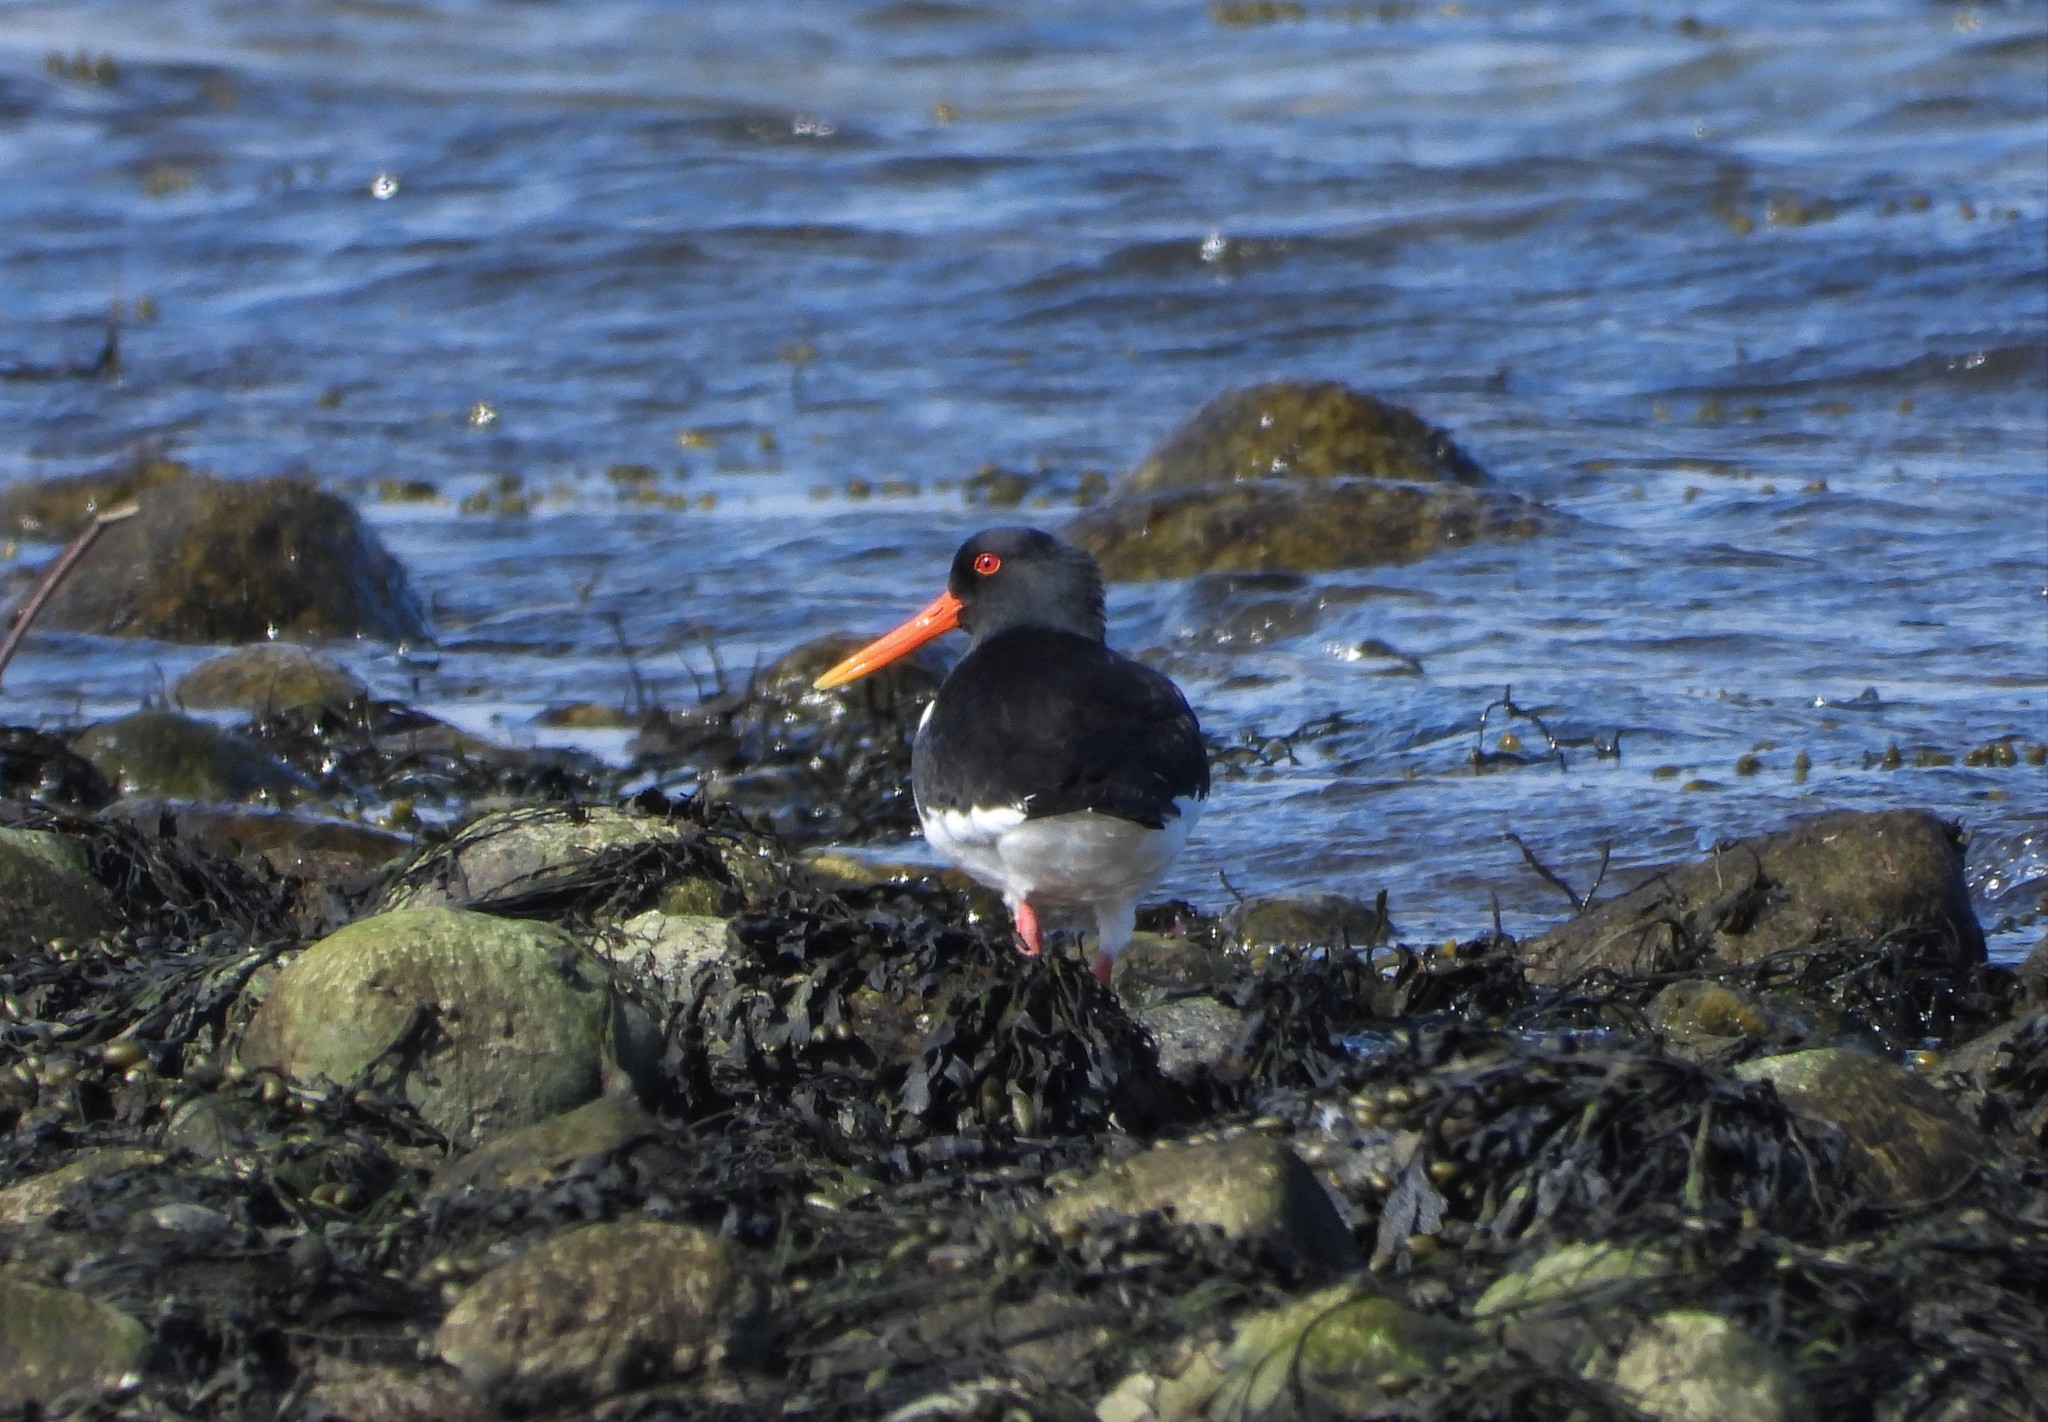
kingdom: Animalia
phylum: Chordata
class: Aves
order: Charadriiformes
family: Haematopodidae
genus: Haematopus
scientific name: Haematopus ostralegus
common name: Eurasian oystercatcher
